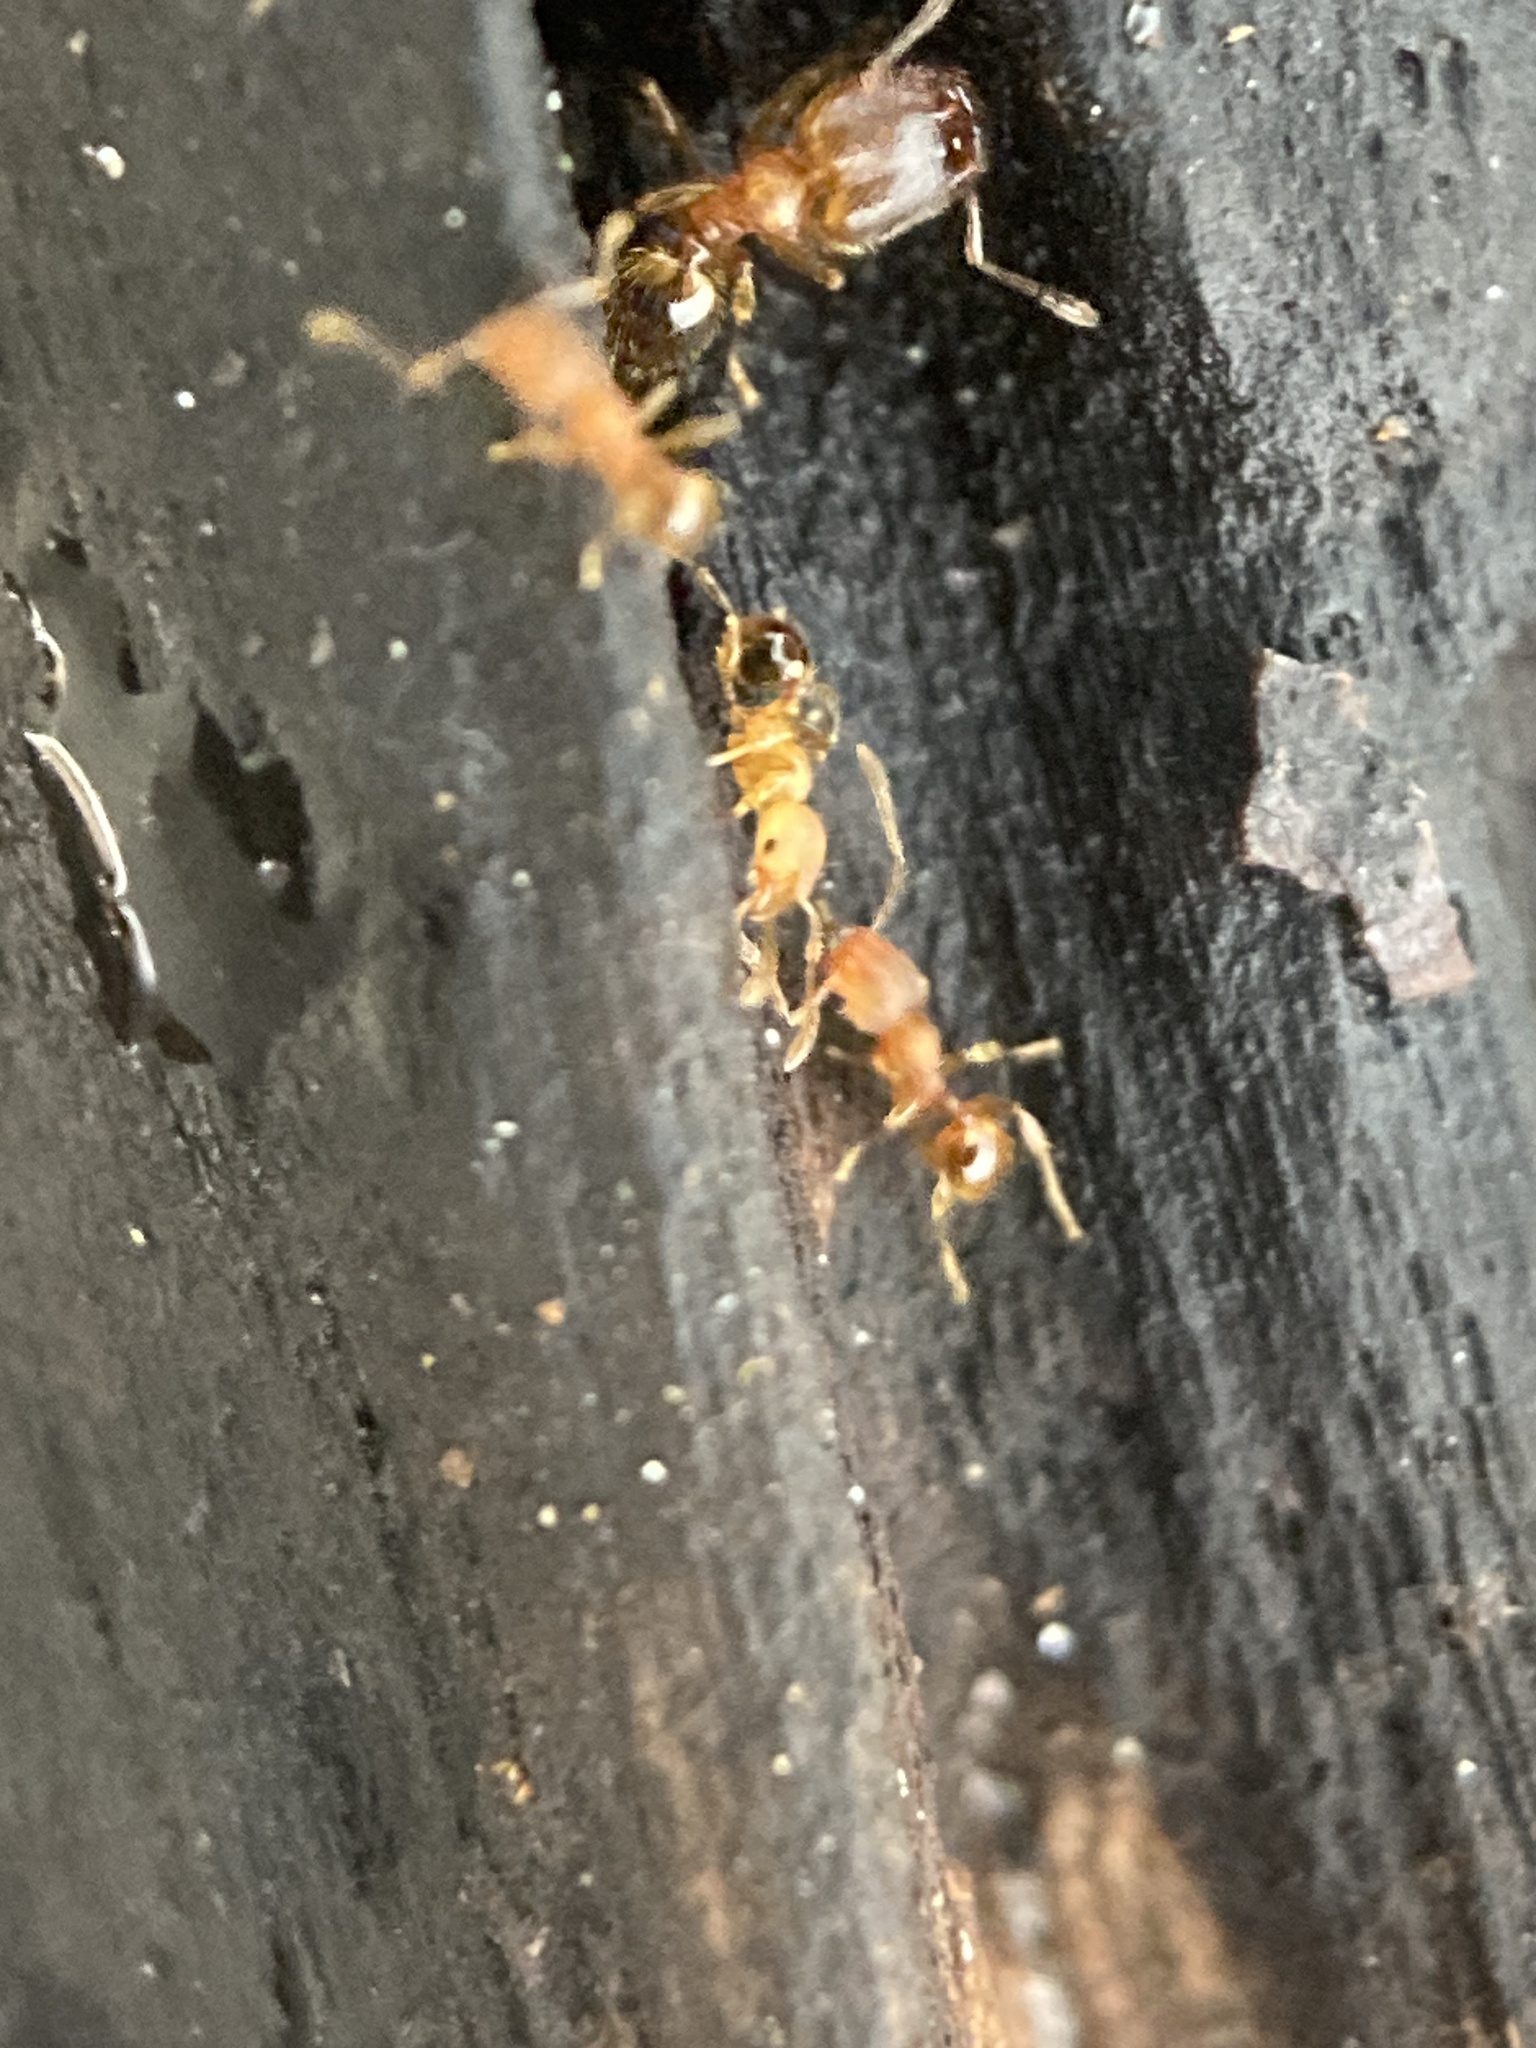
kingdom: Animalia
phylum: Arthropoda
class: Insecta
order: Hymenoptera
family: Formicidae
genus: Pheidole
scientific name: Pheidole navigans
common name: Navigating big-headed ant
